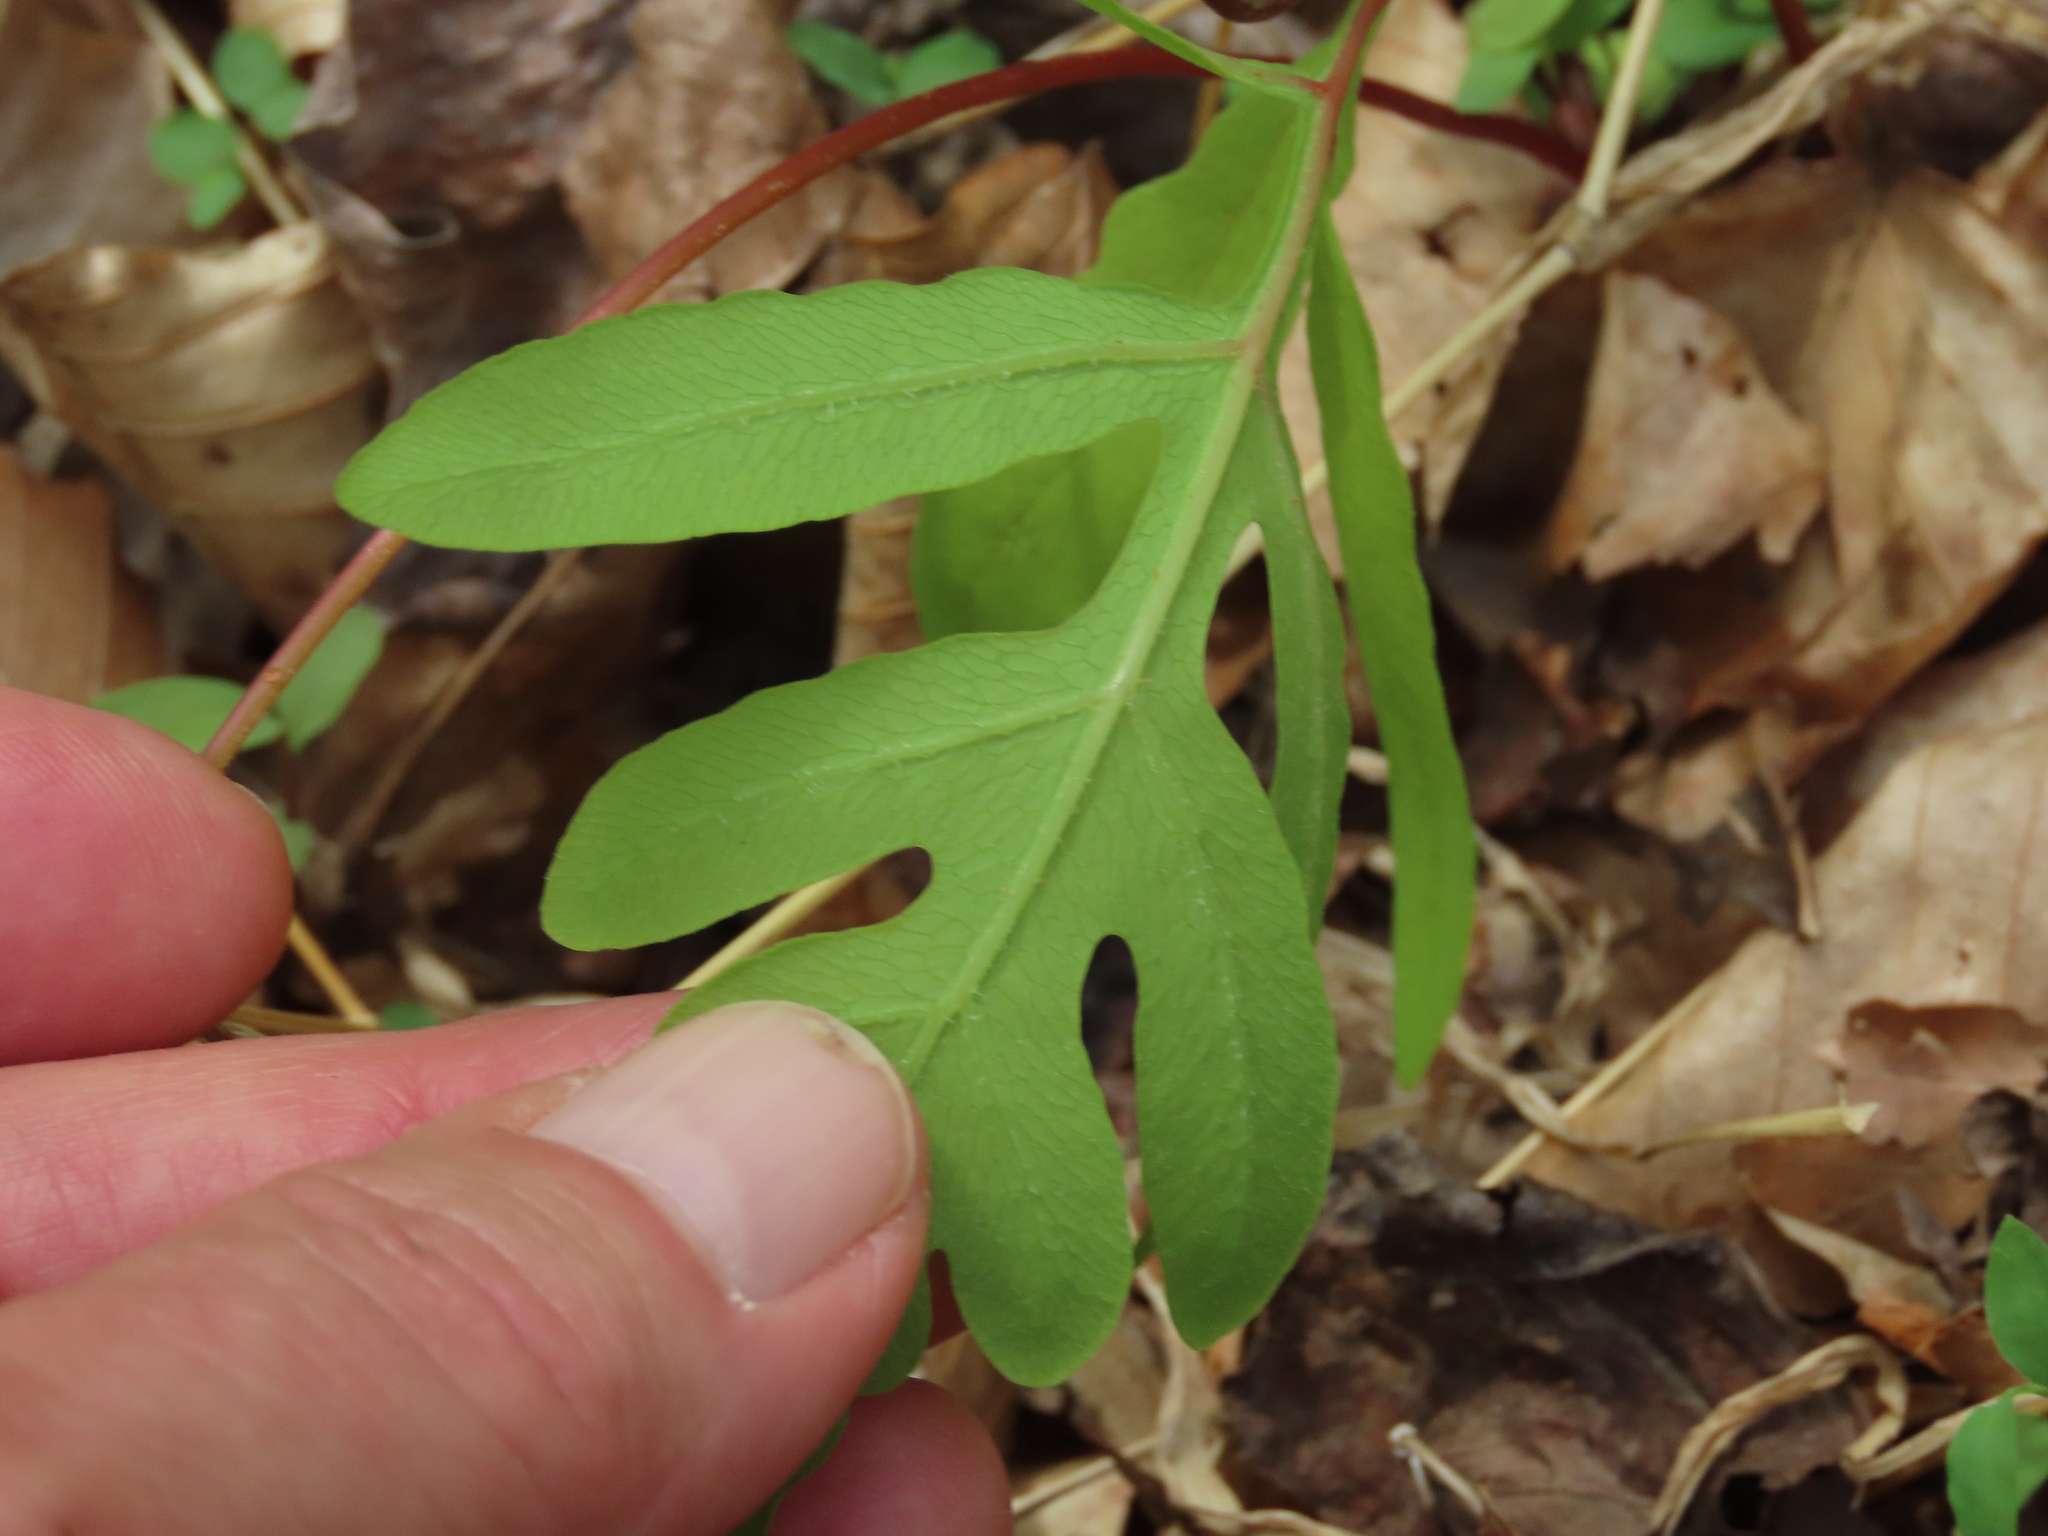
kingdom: Plantae
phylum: Tracheophyta
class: Polypodiopsida
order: Polypodiales
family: Onocleaceae
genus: Onoclea
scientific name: Onoclea sensibilis
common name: Sensitive fern
